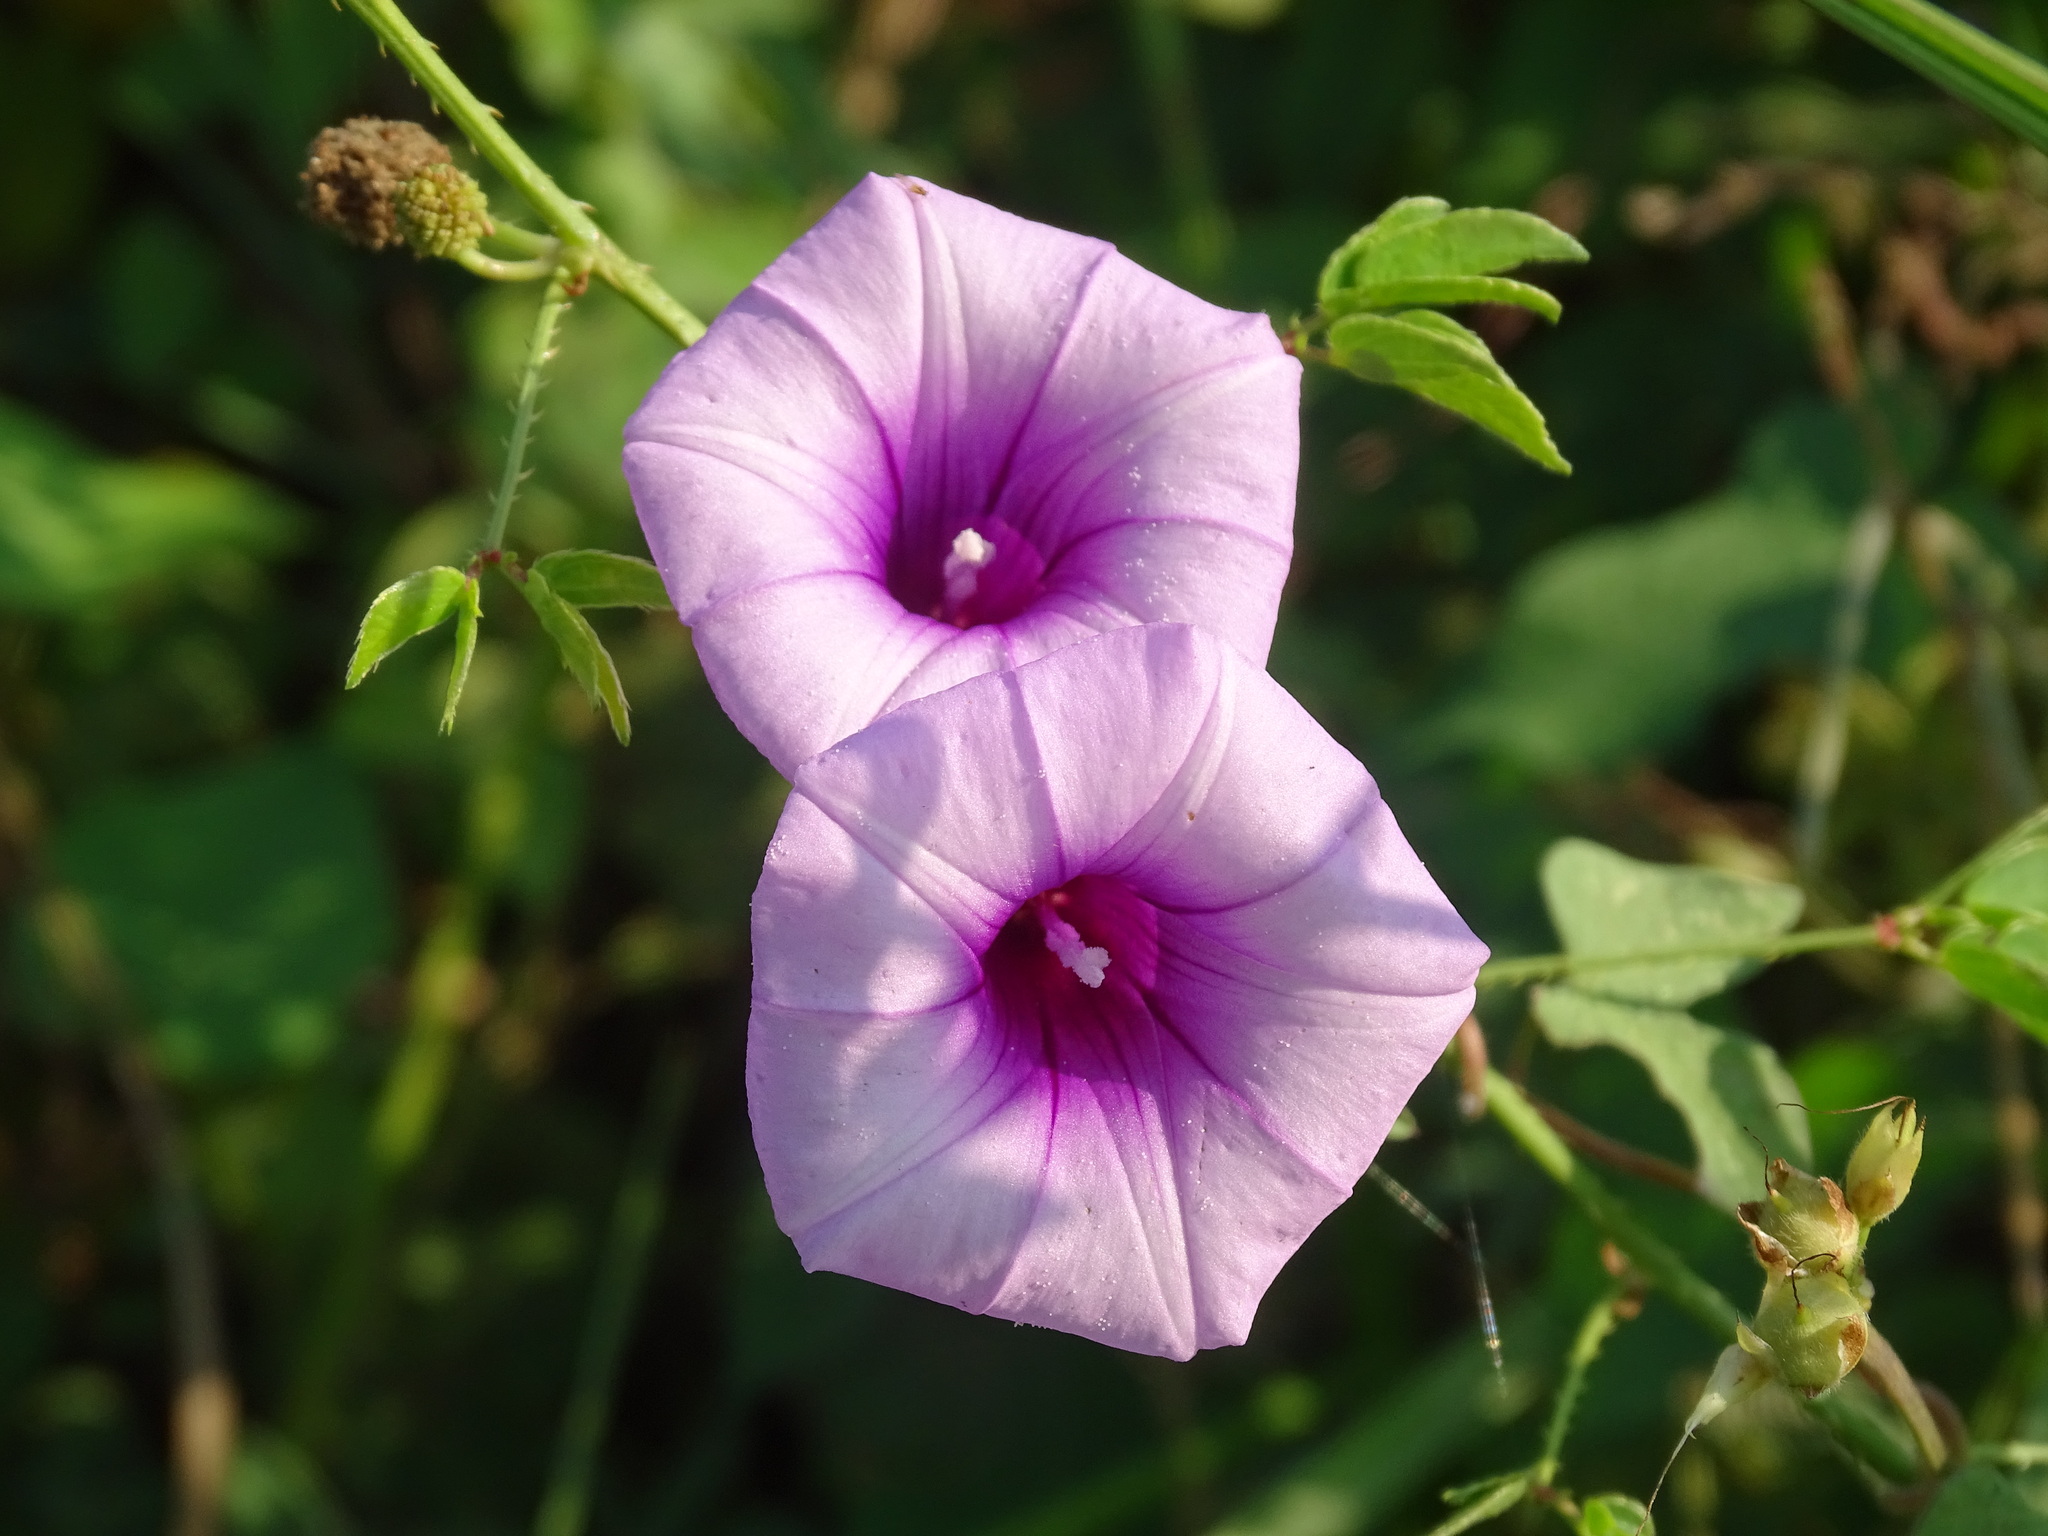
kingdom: Plantae
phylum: Tracheophyta
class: Magnoliopsida
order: Solanales
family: Convolvulaceae
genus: Ipomoea
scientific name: Ipomoea trifida
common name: Cotton morningglory
